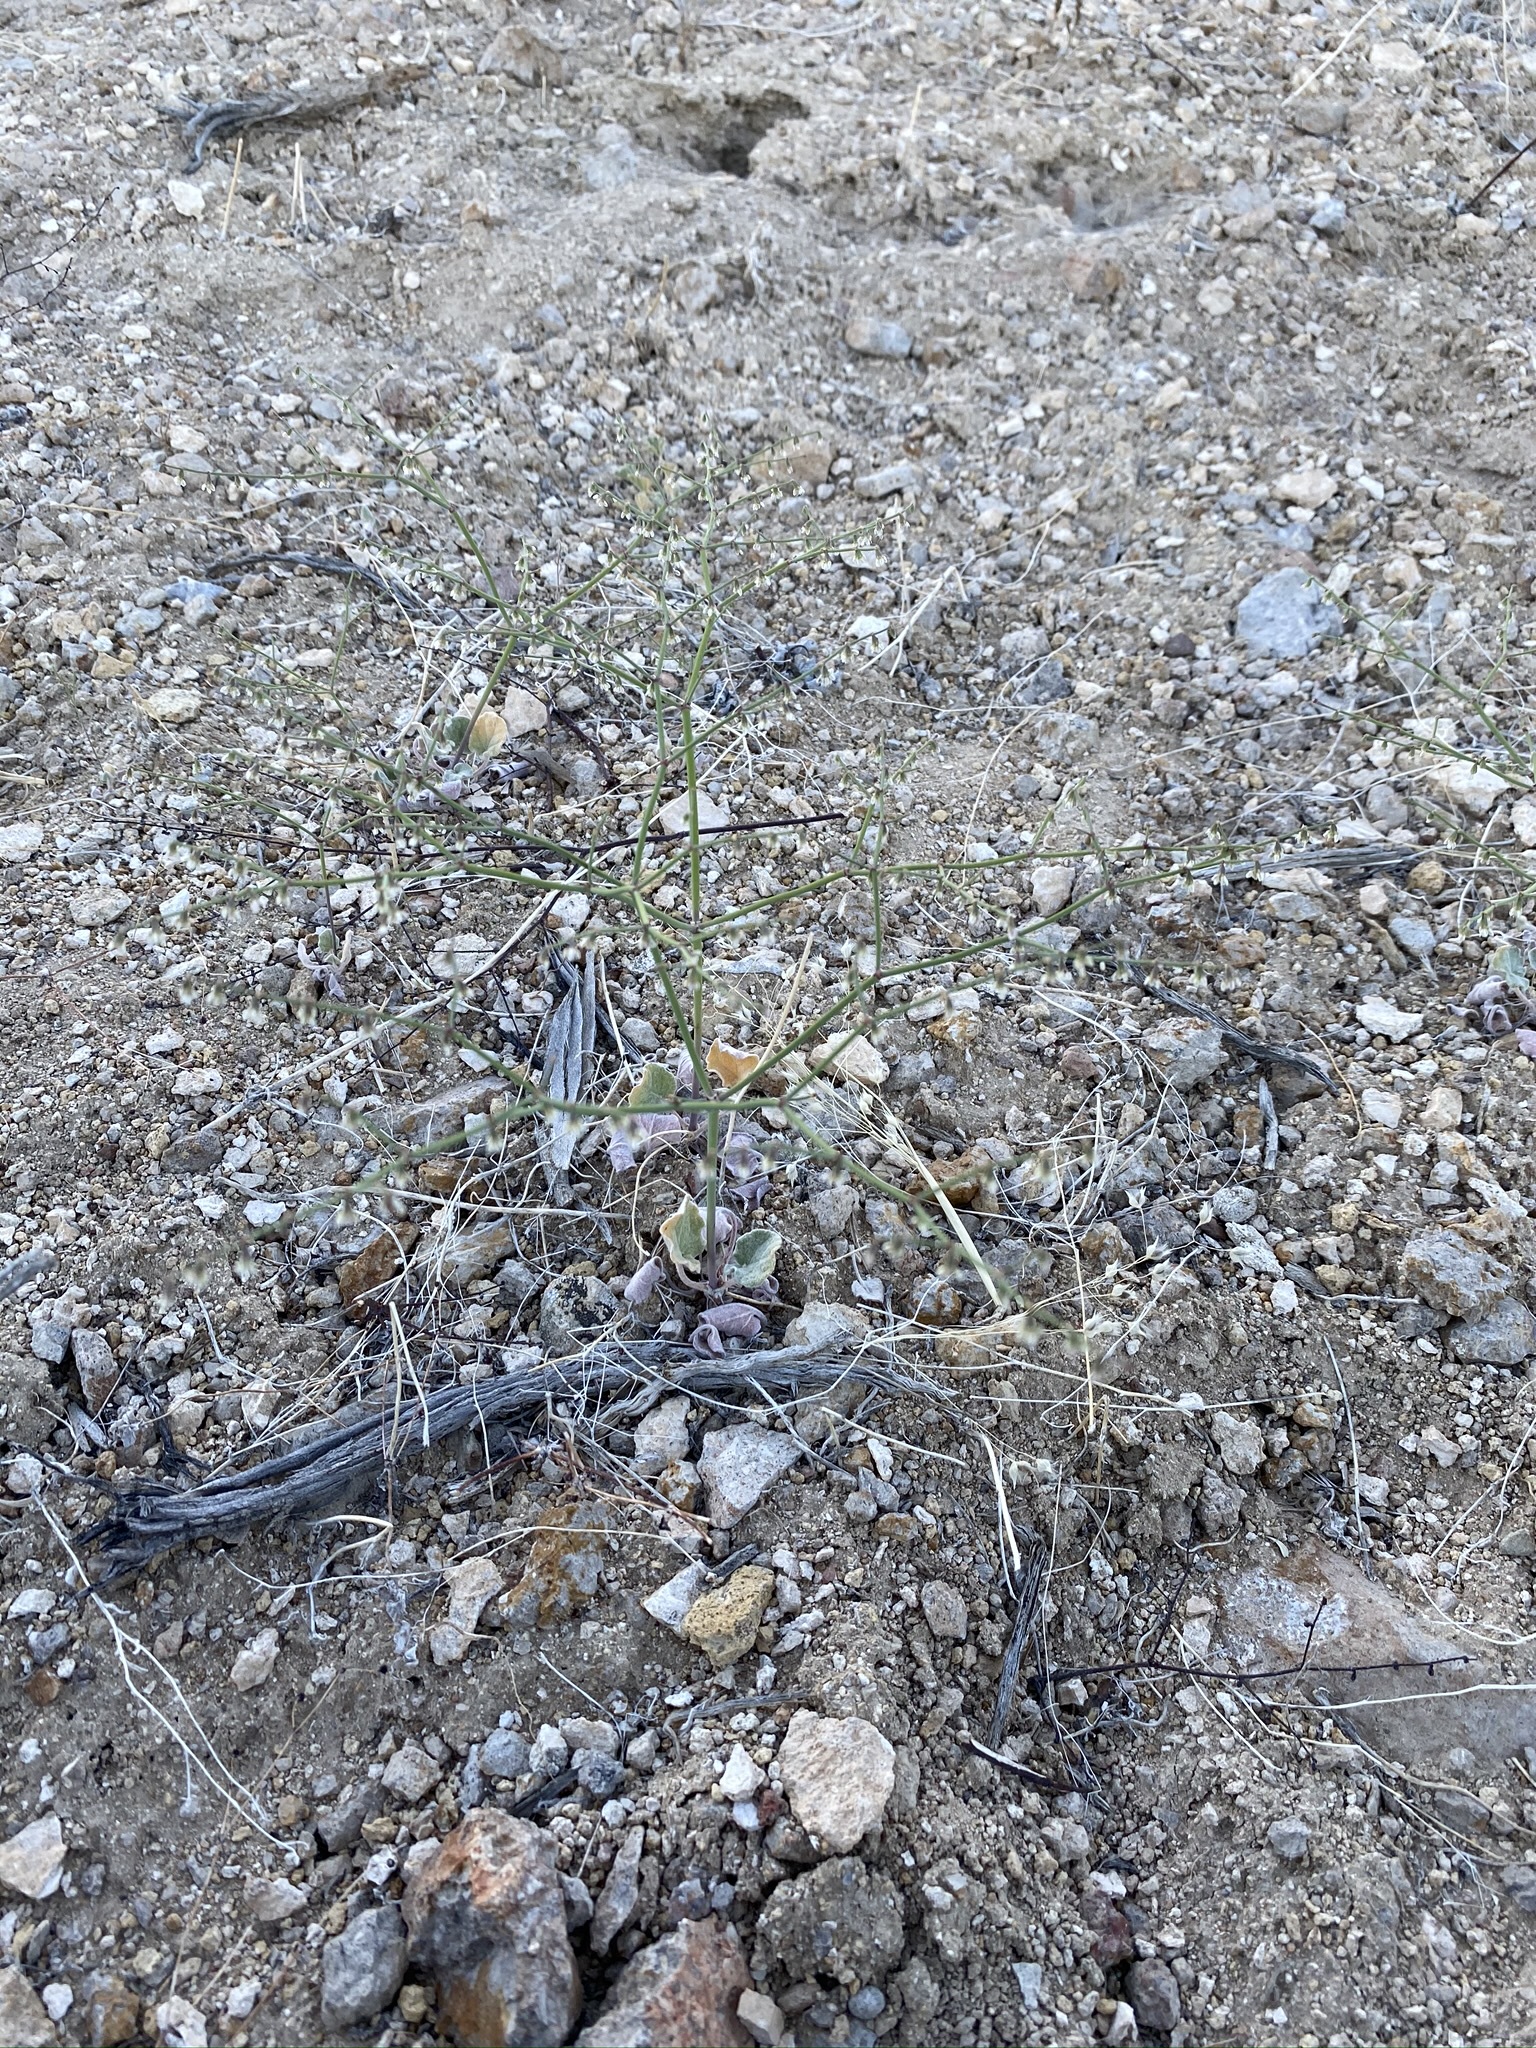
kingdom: Plantae
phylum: Tracheophyta
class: Magnoliopsida
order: Caryophyllales
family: Polygonaceae
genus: Eriogonum
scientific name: Eriogonum deflexum
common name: Skeleton-weed
